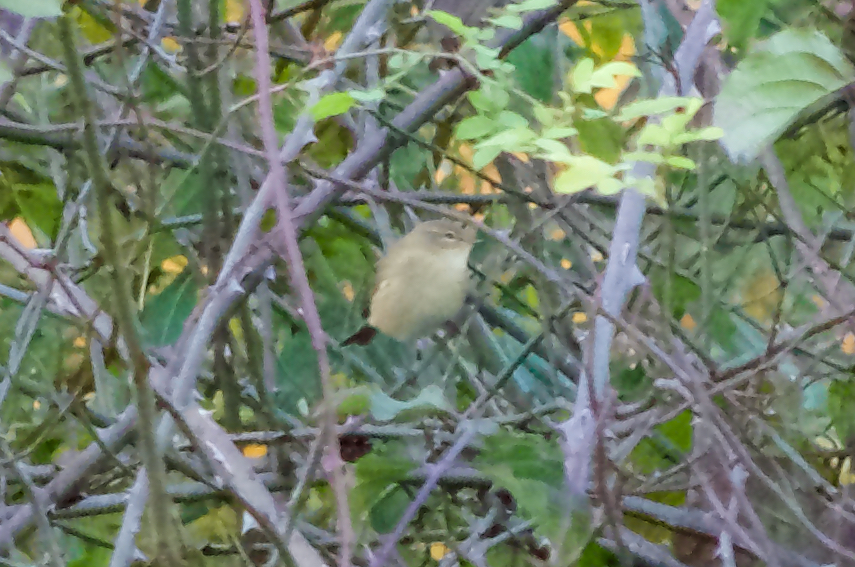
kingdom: Animalia
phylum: Chordata
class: Aves
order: Passeriformes
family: Phylloscopidae
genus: Phylloscopus
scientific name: Phylloscopus collybita
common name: Common chiffchaff
